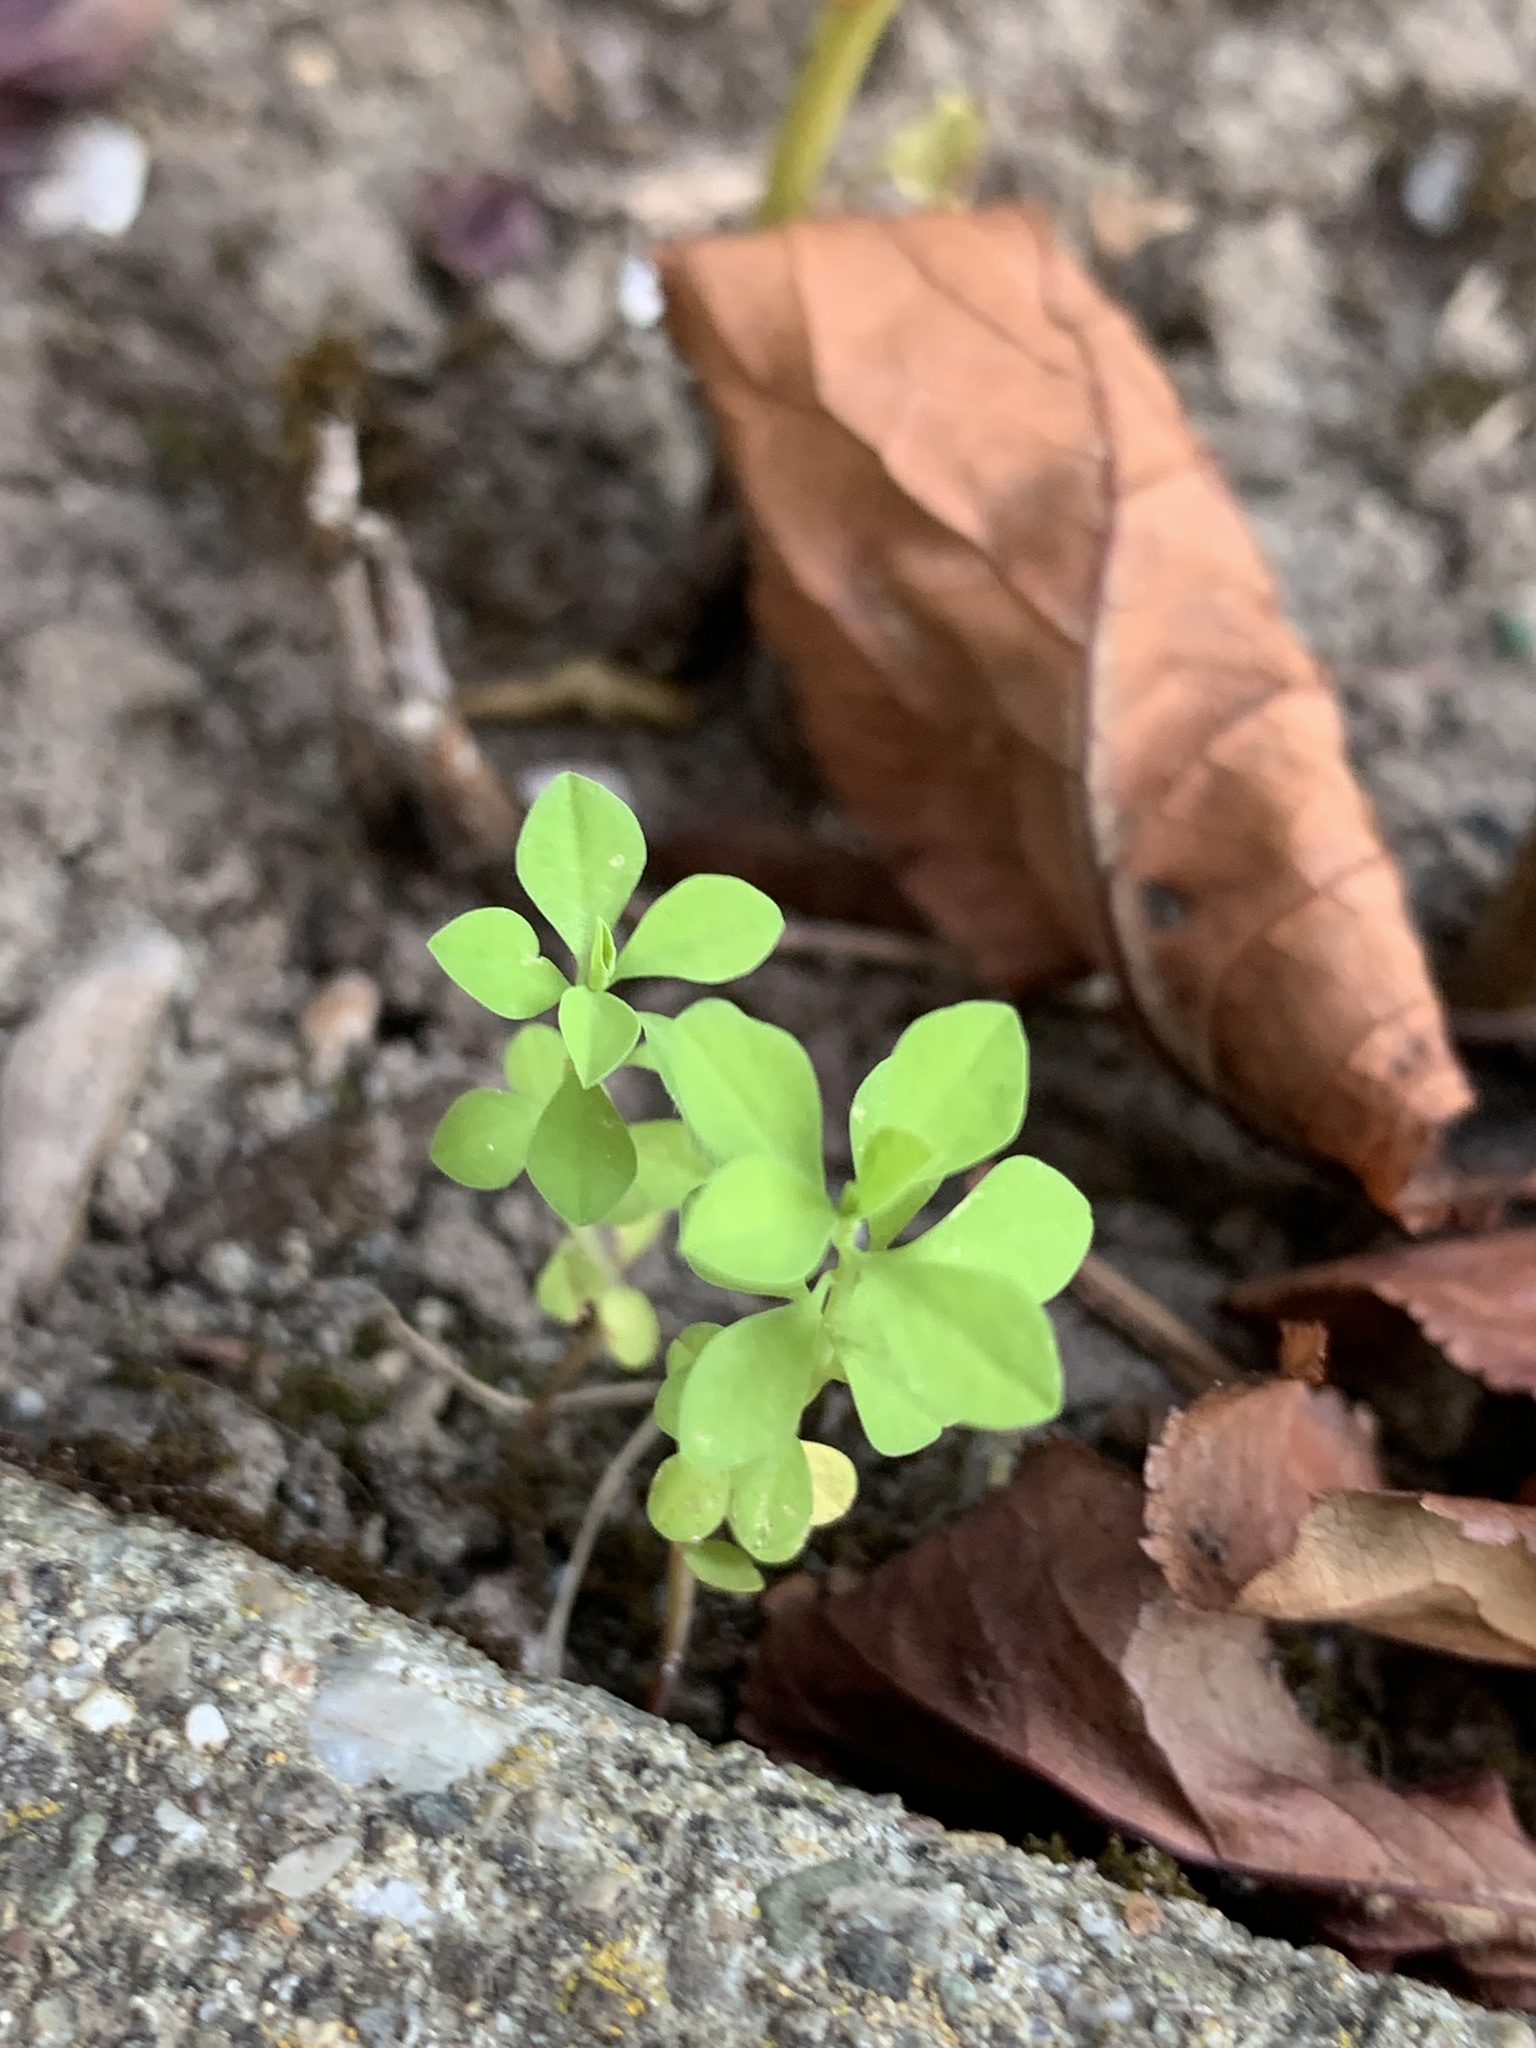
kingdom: Plantae
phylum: Tracheophyta
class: Magnoliopsida
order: Malpighiales
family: Euphorbiaceae
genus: Euphorbia
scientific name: Euphorbia peplus
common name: Petty spurge
